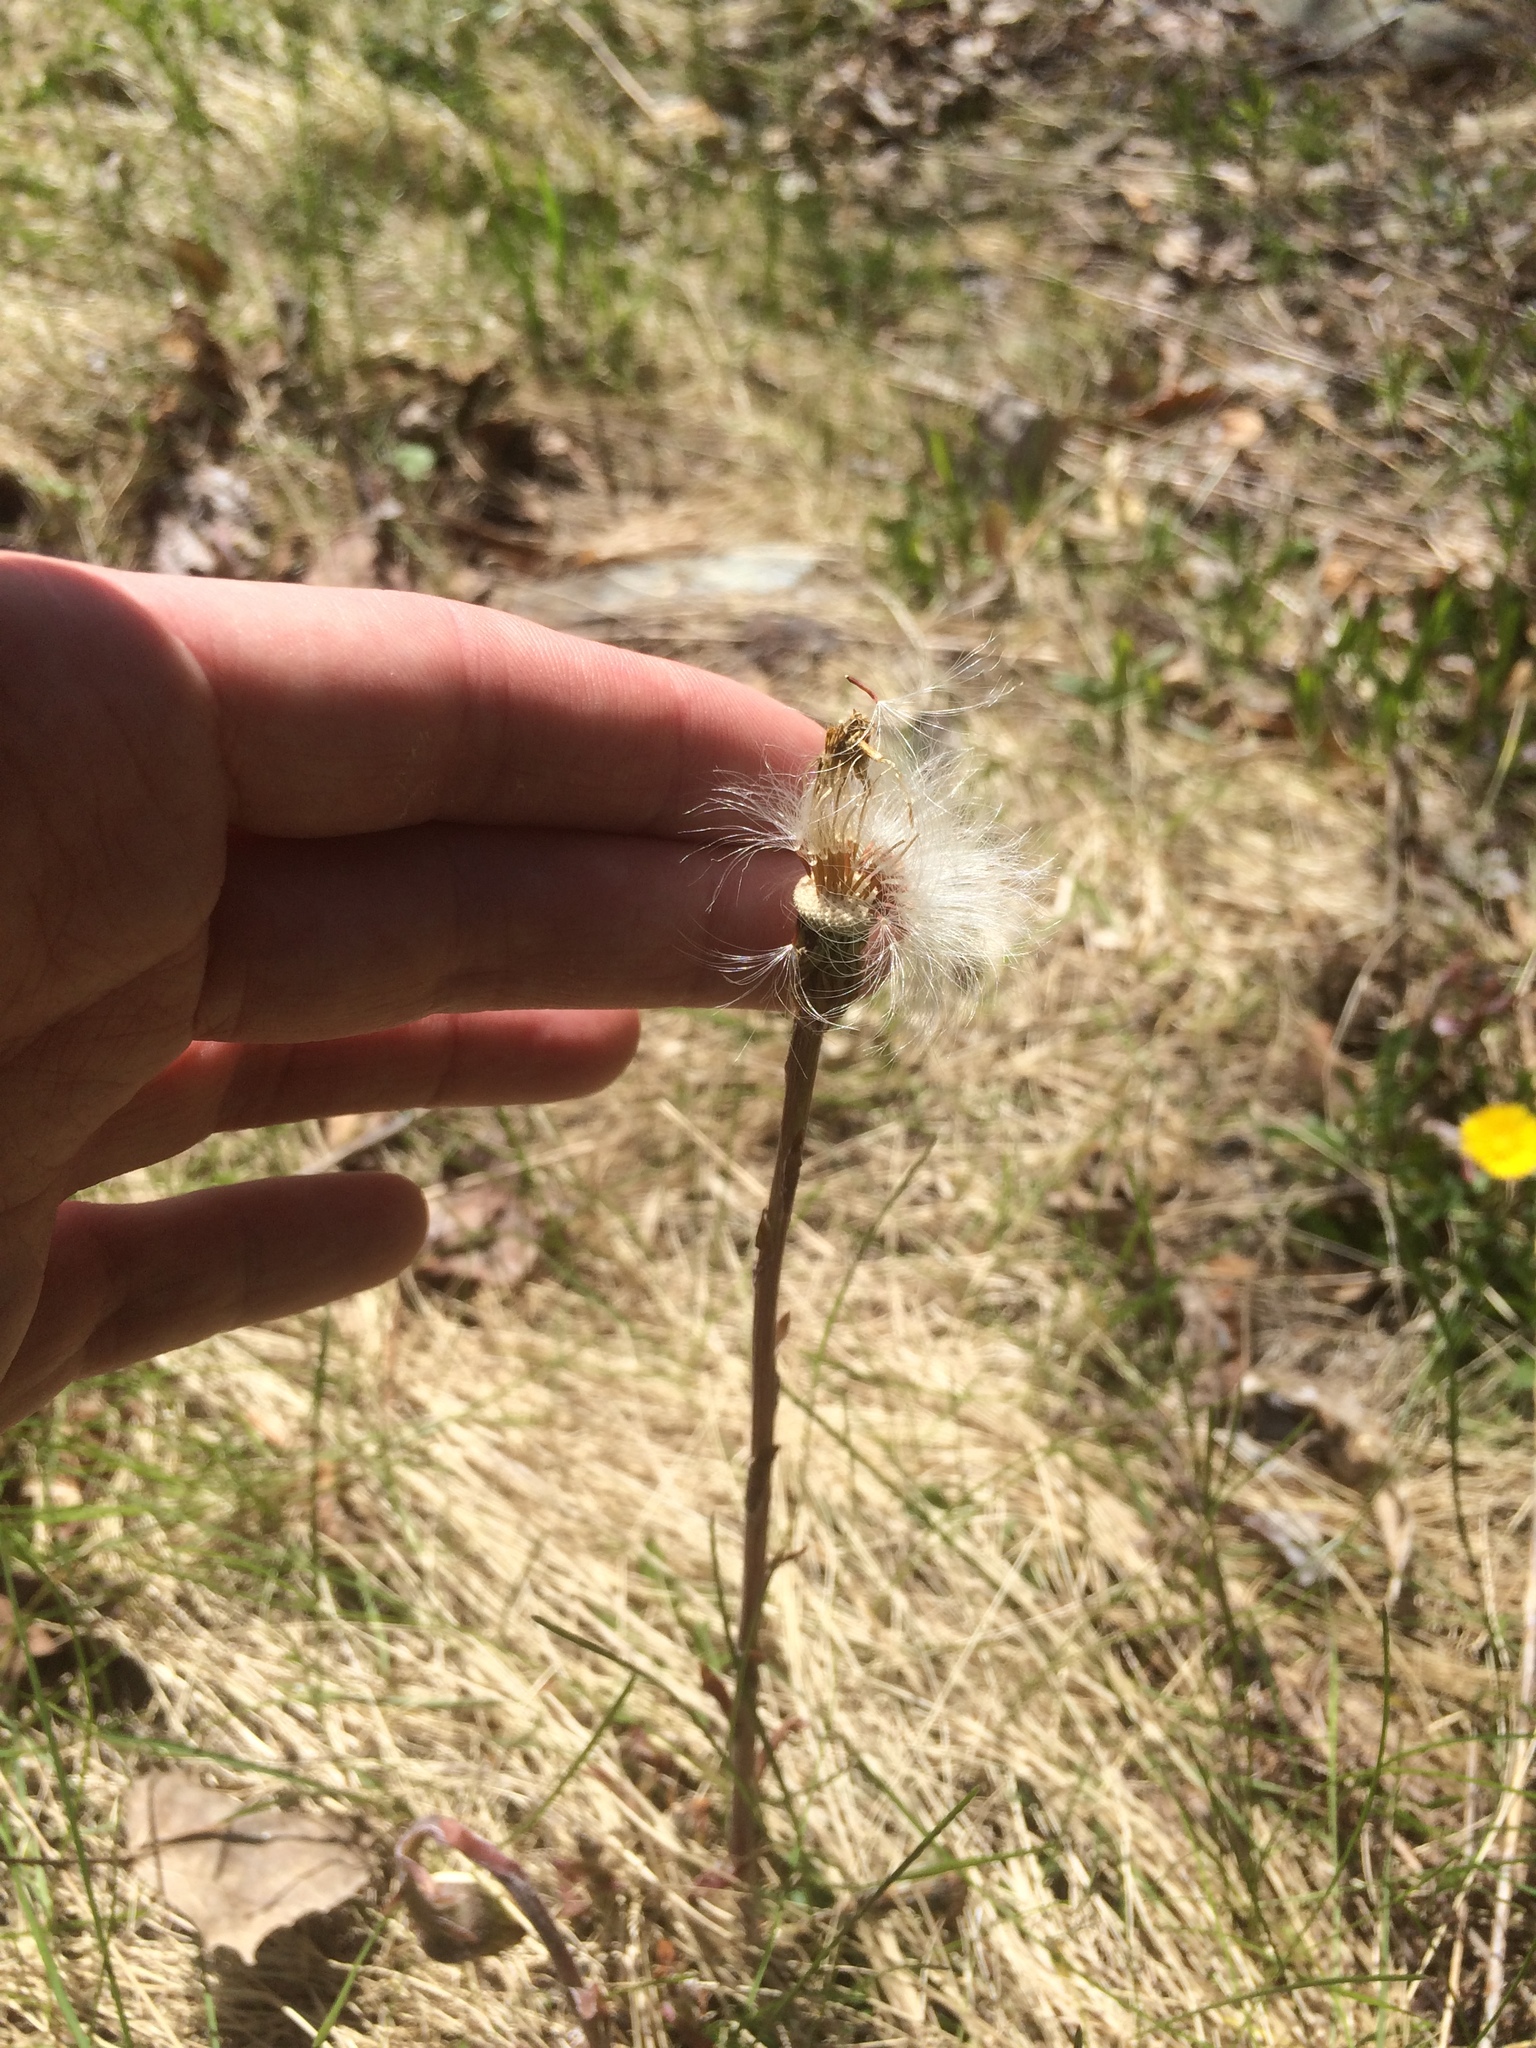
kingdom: Plantae
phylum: Tracheophyta
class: Magnoliopsida
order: Asterales
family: Asteraceae
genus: Tussilago
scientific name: Tussilago farfara
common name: Coltsfoot
